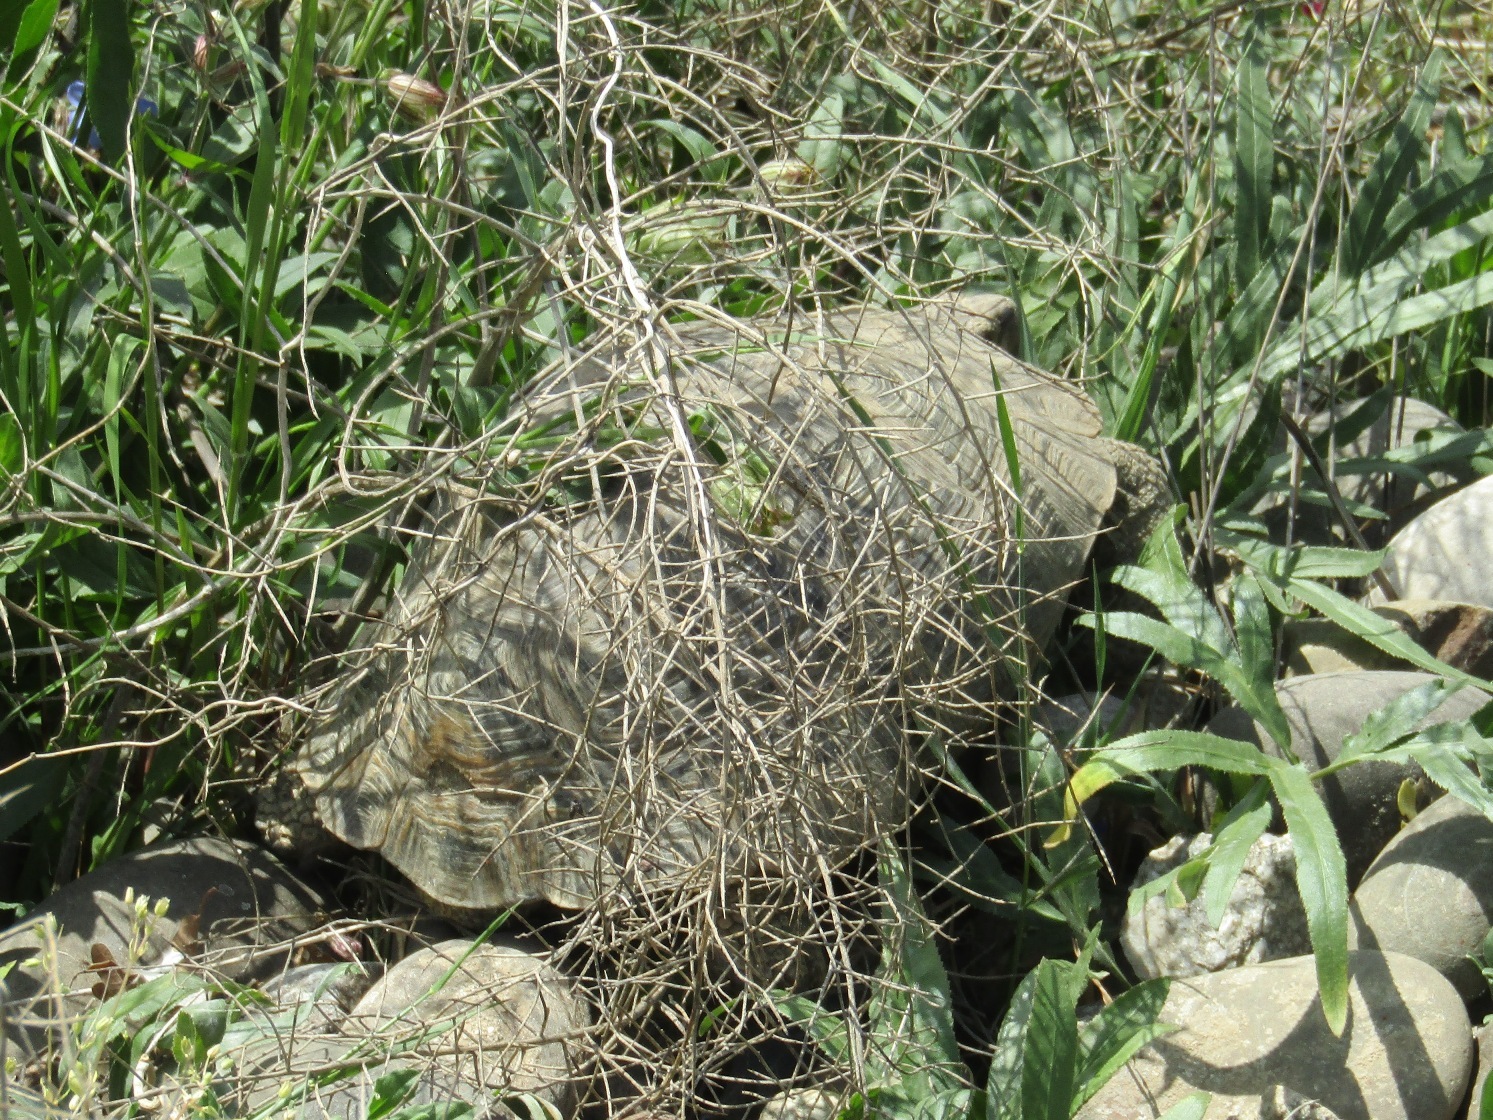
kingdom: Animalia
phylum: Chordata
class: Testudines
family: Testudinidae
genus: Testudo
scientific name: Testudo graeca
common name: Common tortoise
